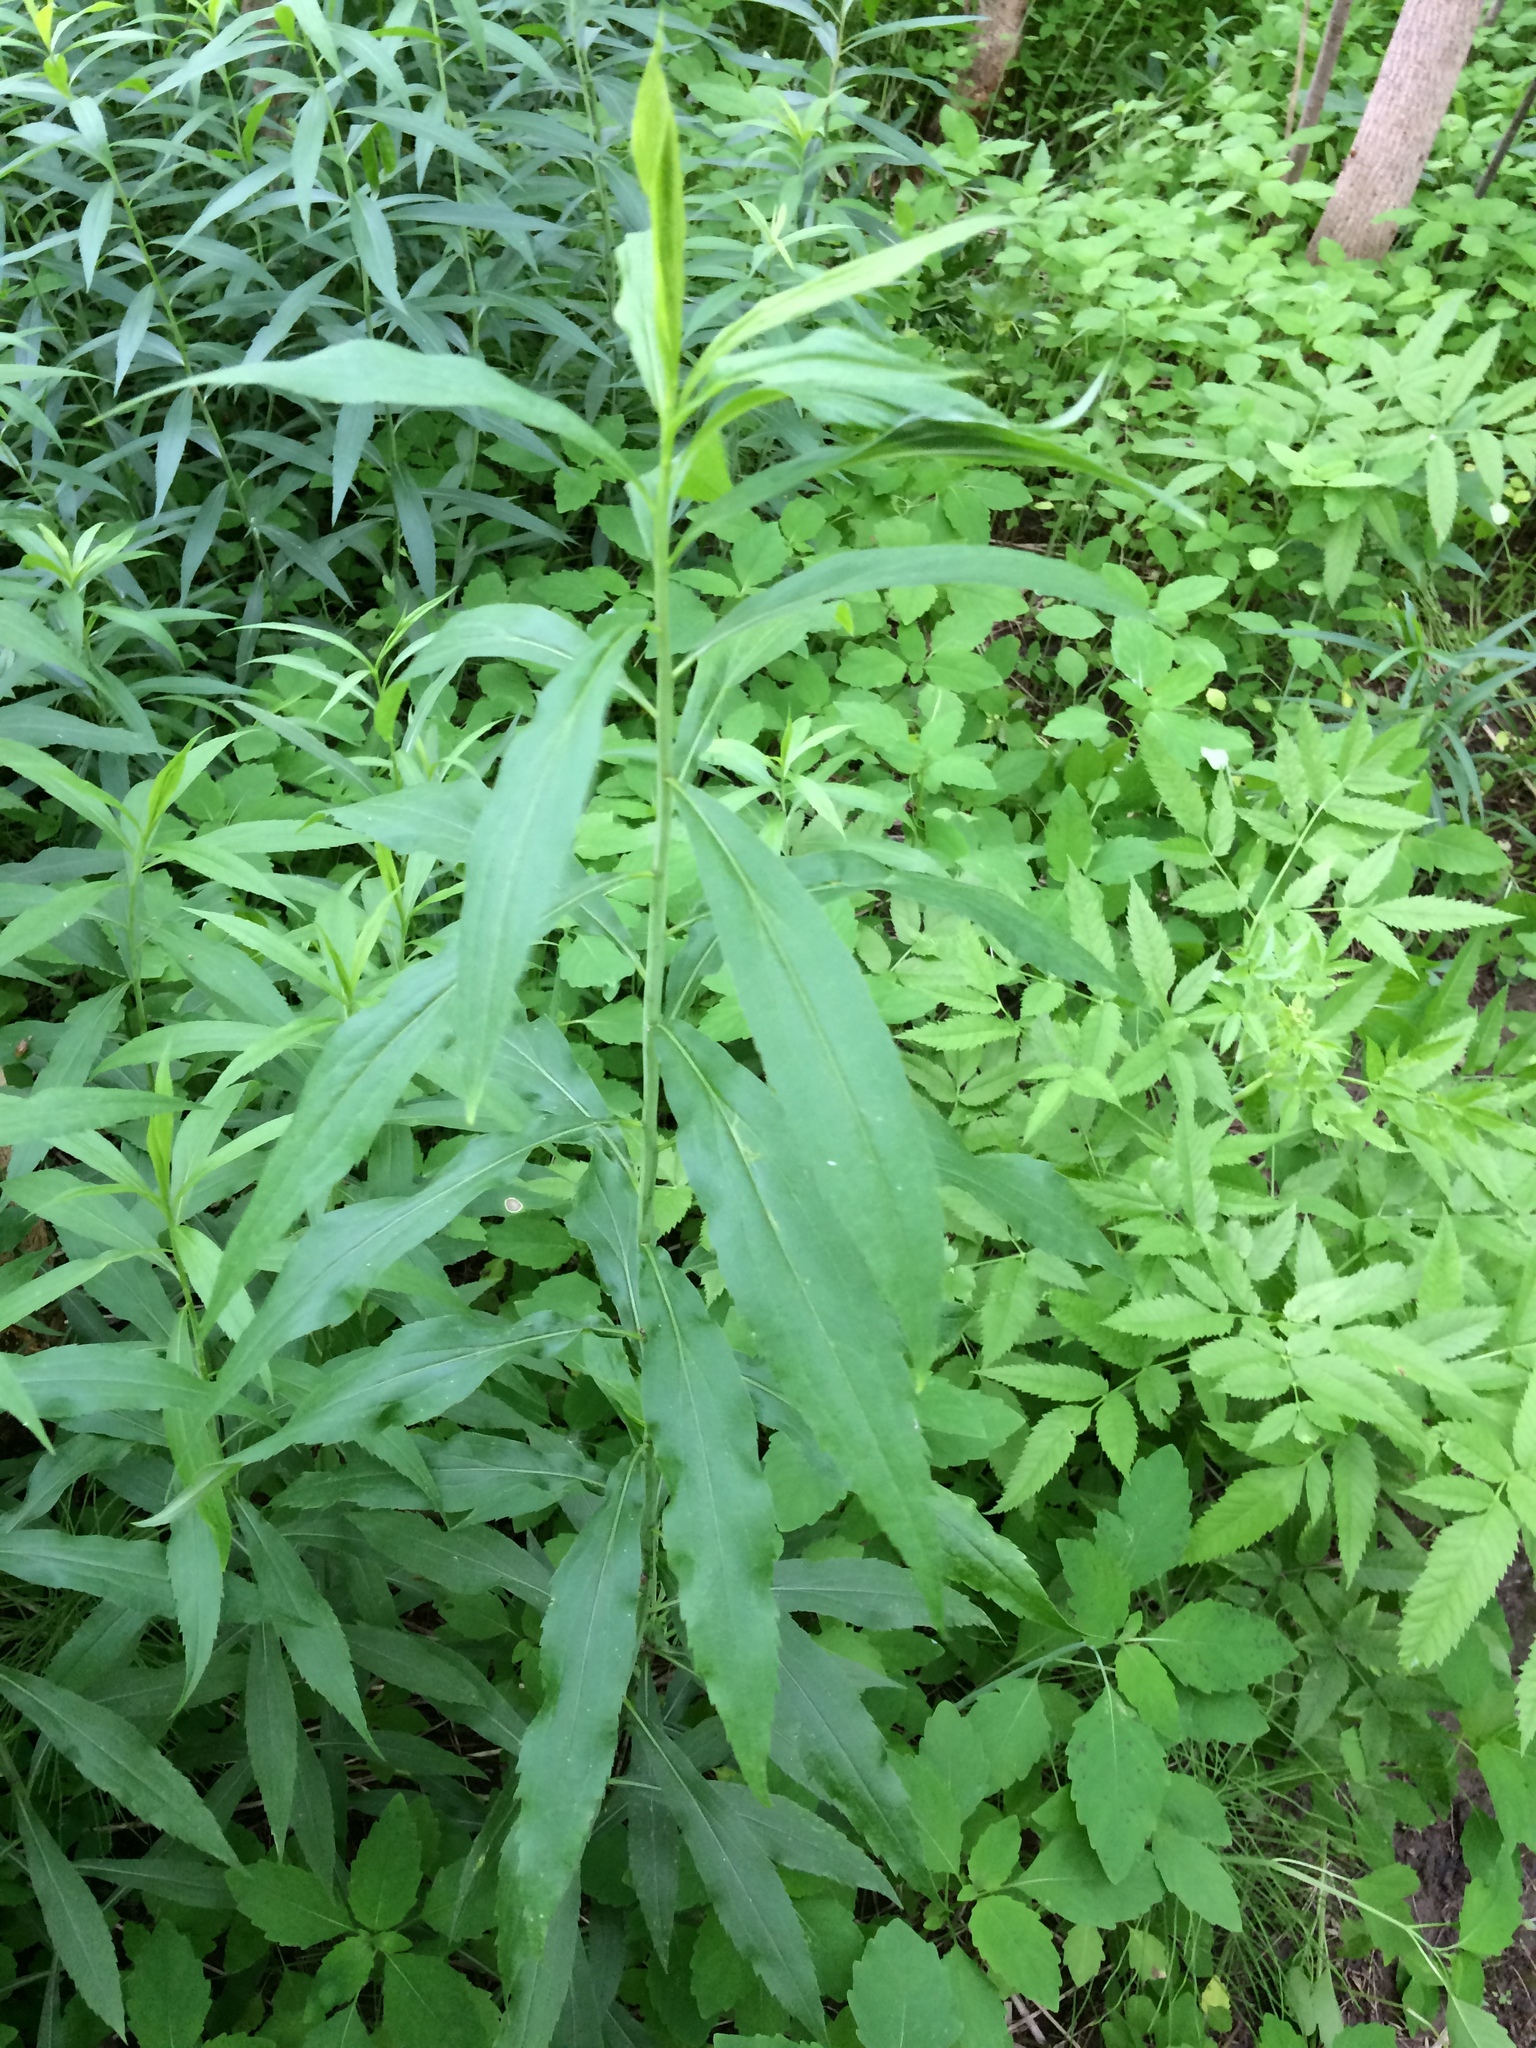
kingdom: Plantae
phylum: Tracheophyta
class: Magnoliopsida
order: Asterales
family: Asteraceae
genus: Solidago
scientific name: Solidago gigantea
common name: Giant goldenrod
